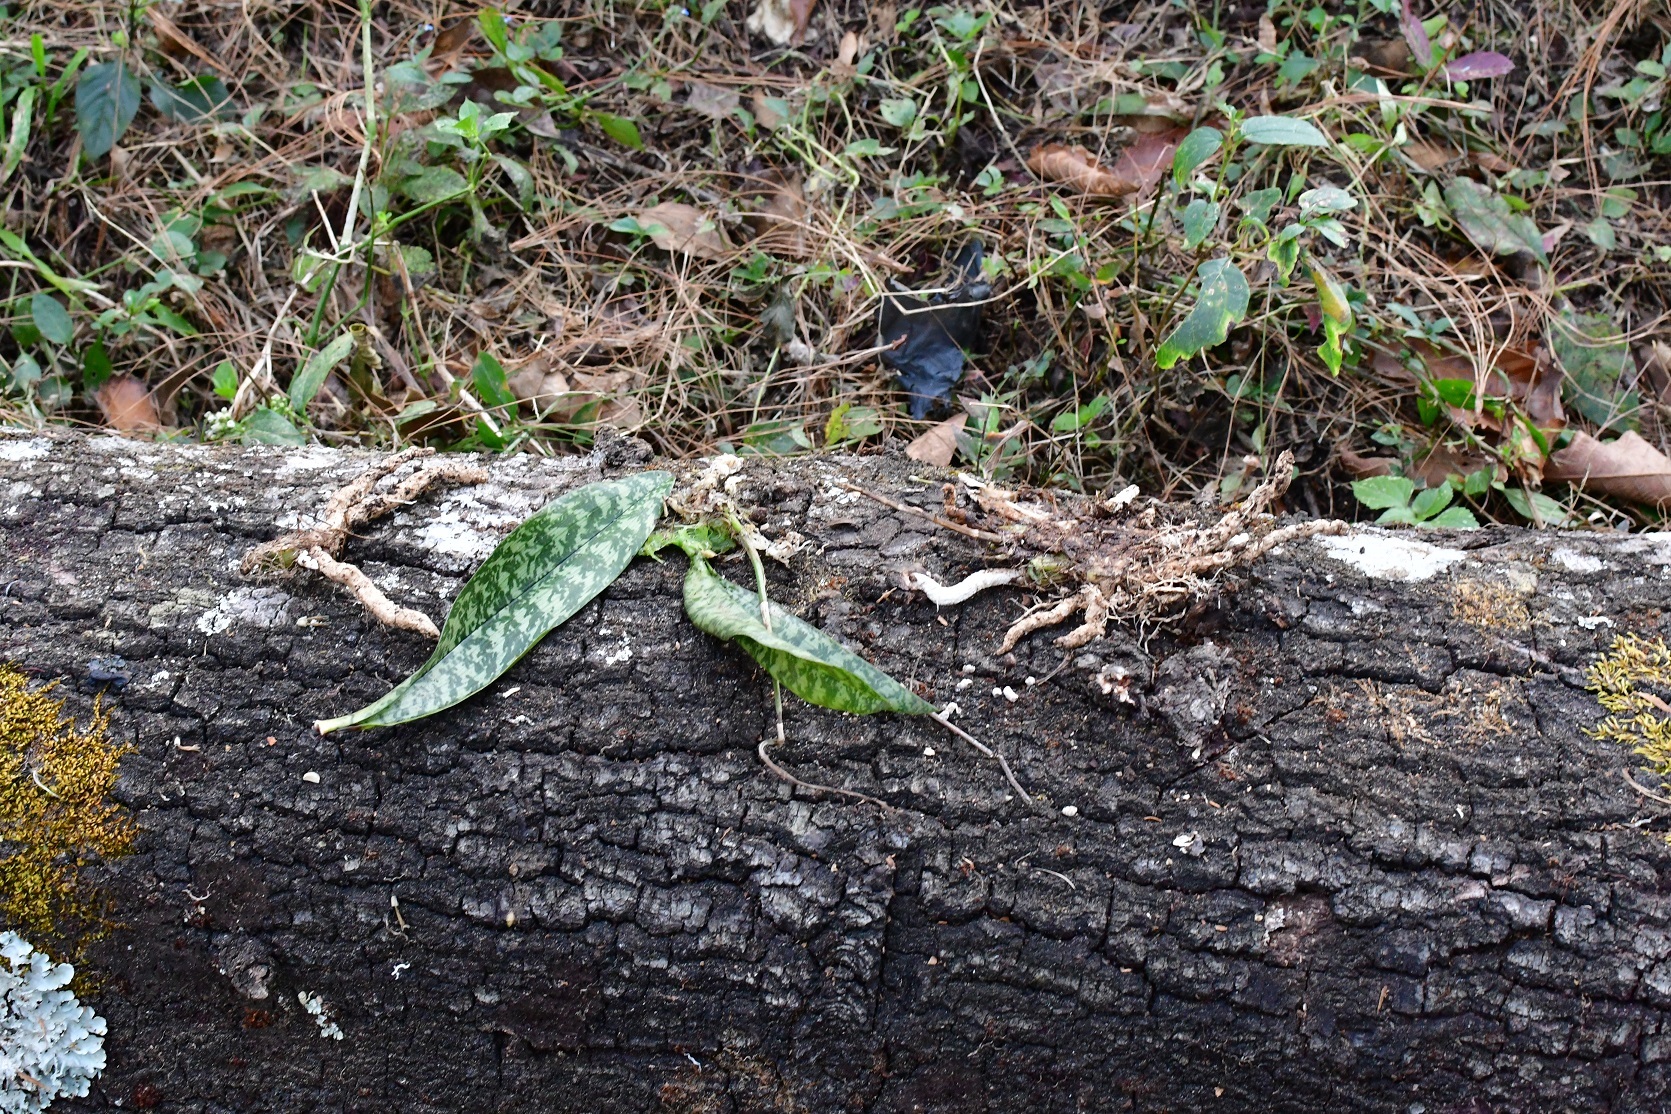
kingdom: Plantae
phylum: Tracheophyta
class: Liliopsida
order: Asparagales
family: Orchidaceae
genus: Eulophia
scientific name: Eulophia maculata
